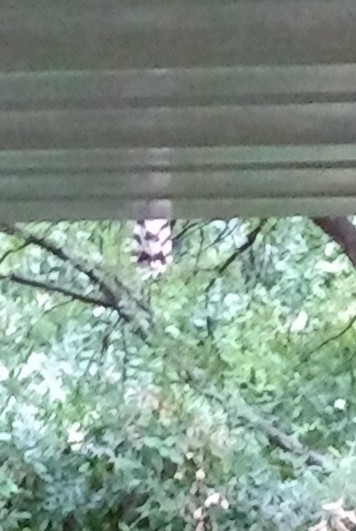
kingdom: Animalia
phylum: Chordata
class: Aves
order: Accipitriformes
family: Accipitridae
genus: Accipiter
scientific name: Accipiter cooperii
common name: Cooper's hawk
